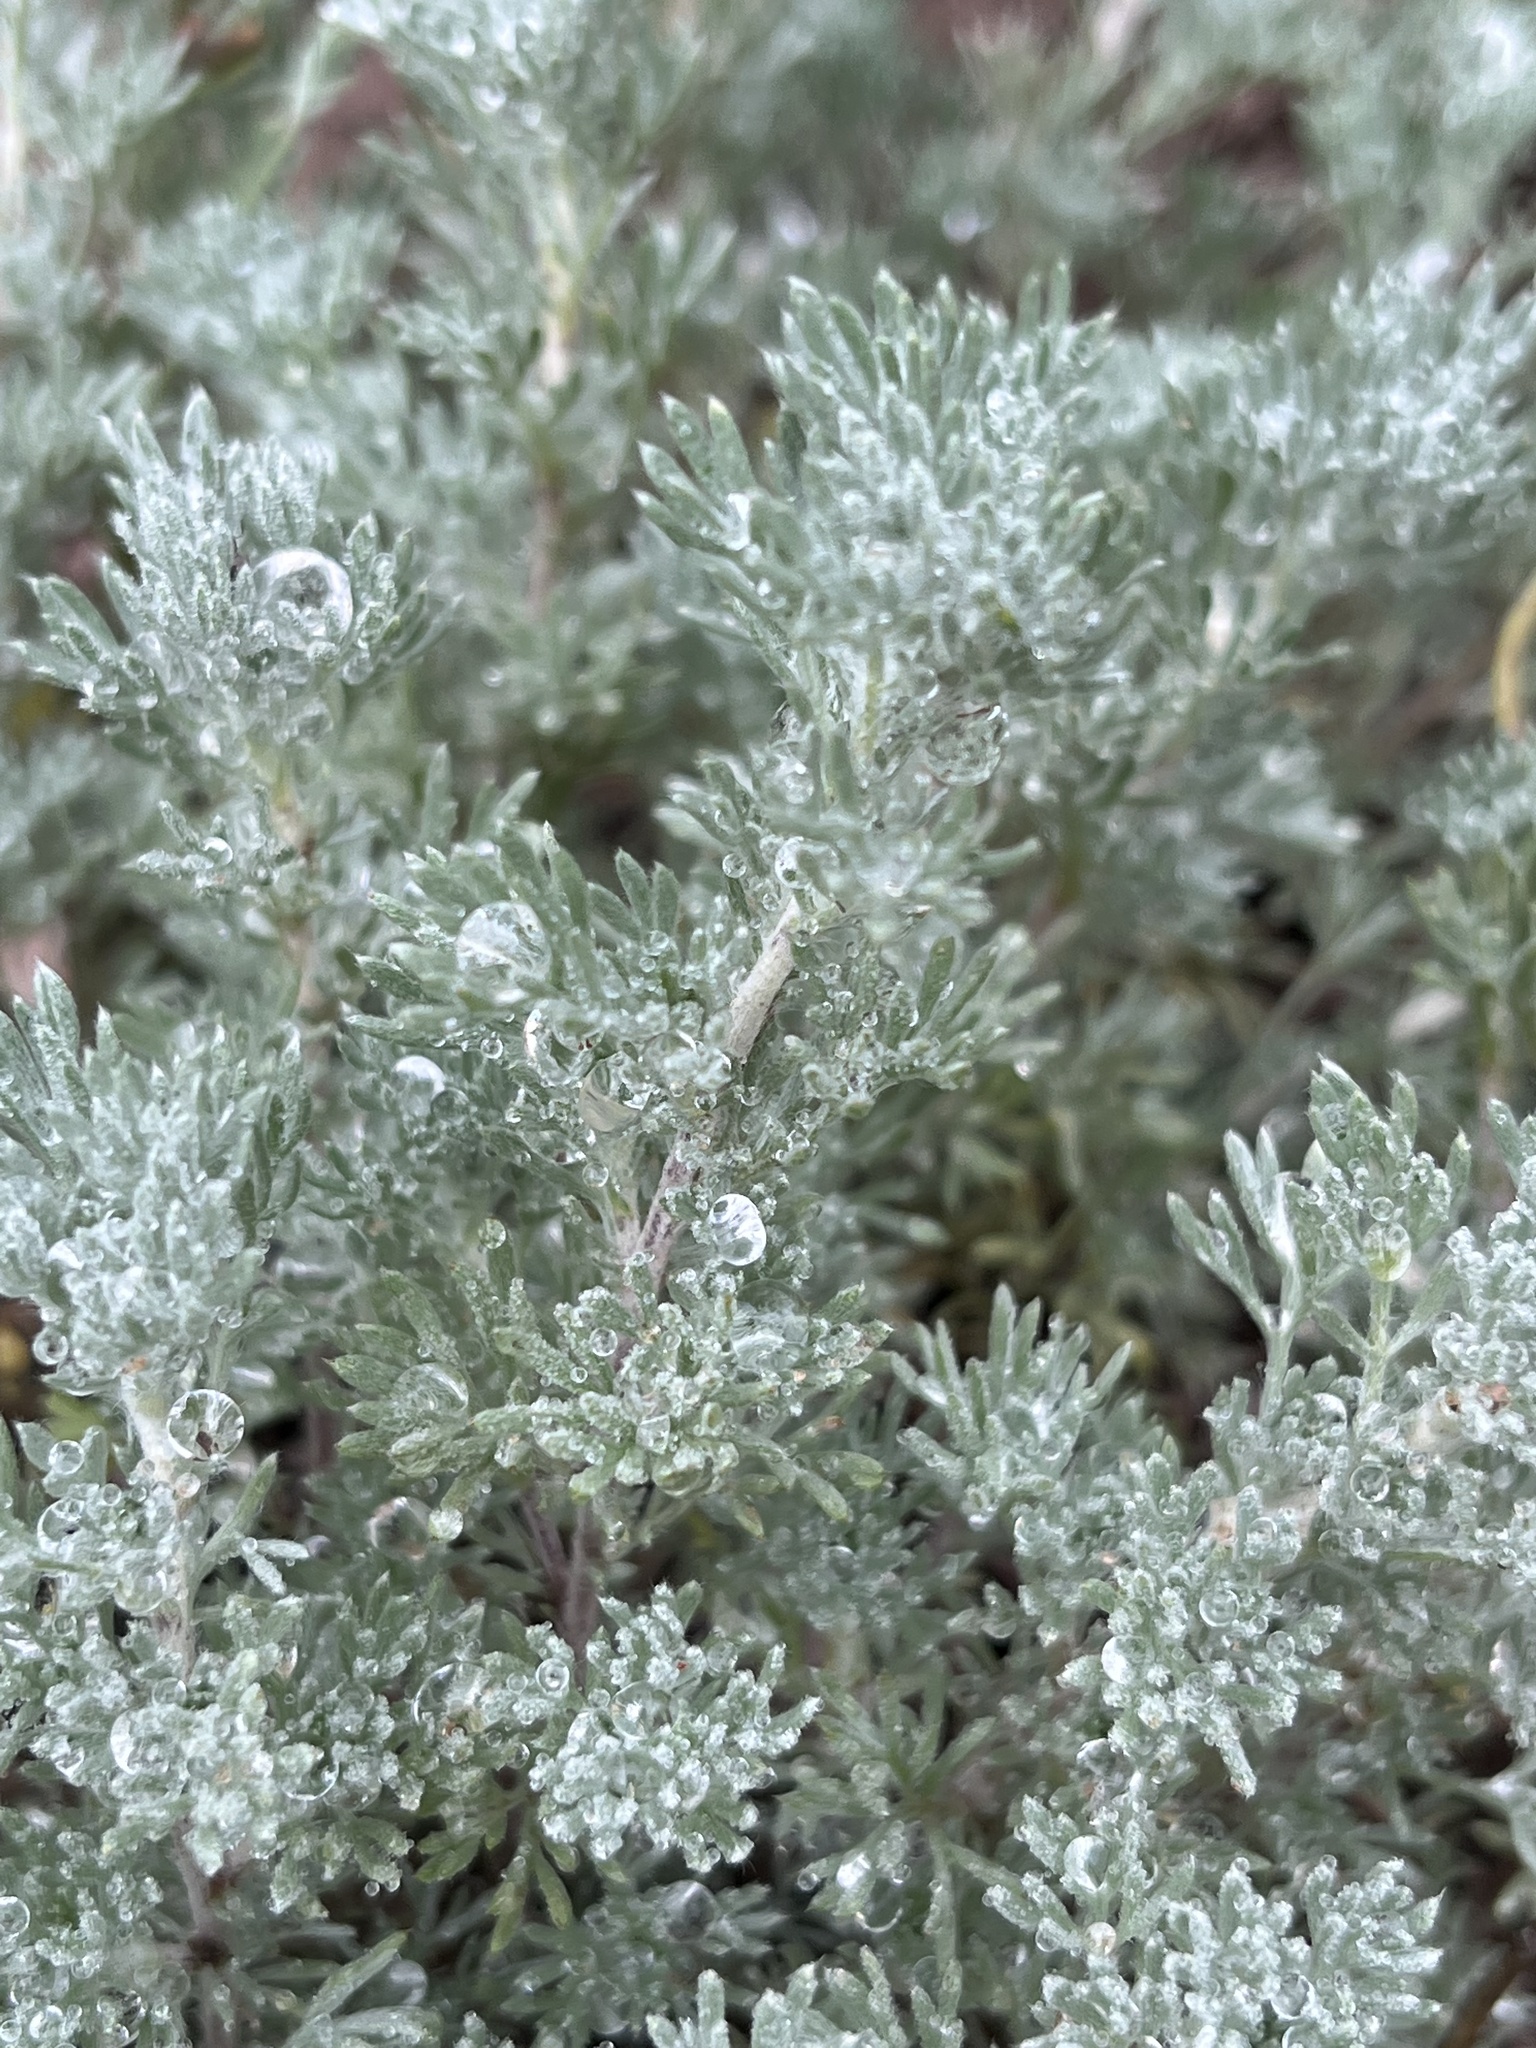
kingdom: Plantae
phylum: Tracheophyta
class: Magnoliopsida
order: Asterales
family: Asteraceae
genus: Artemisia
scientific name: Artemisia frigida
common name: Prairie sagewort
